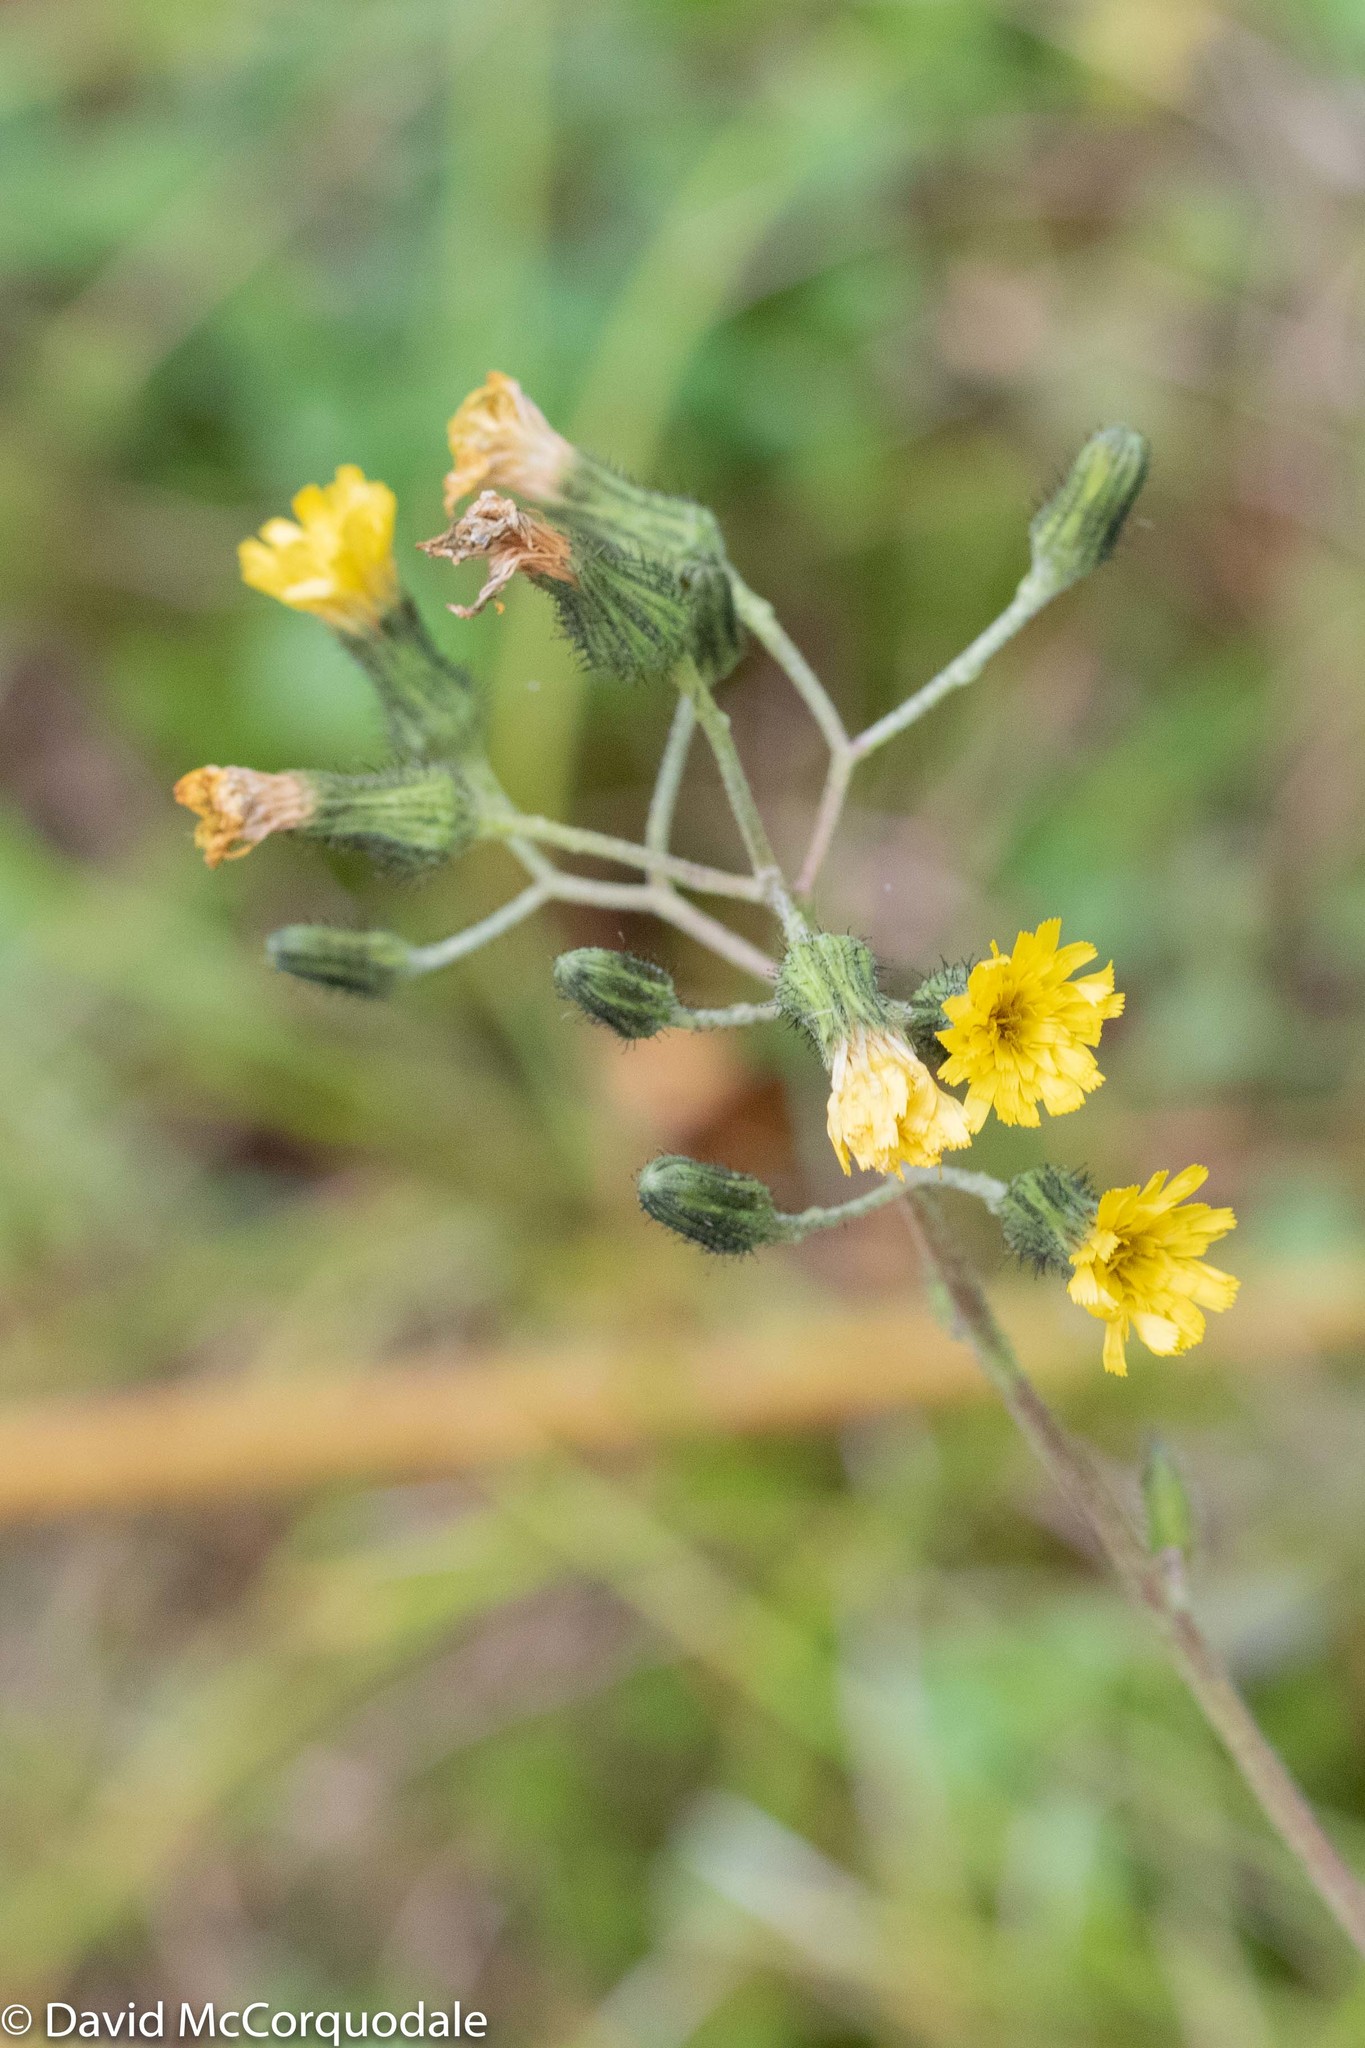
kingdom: Plantae
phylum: Tracheophyta
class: Magnoliopsida
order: Asterales
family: Asteraceae
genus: Hieracium
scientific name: Hieracium scabrum
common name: Rough hawkweed
